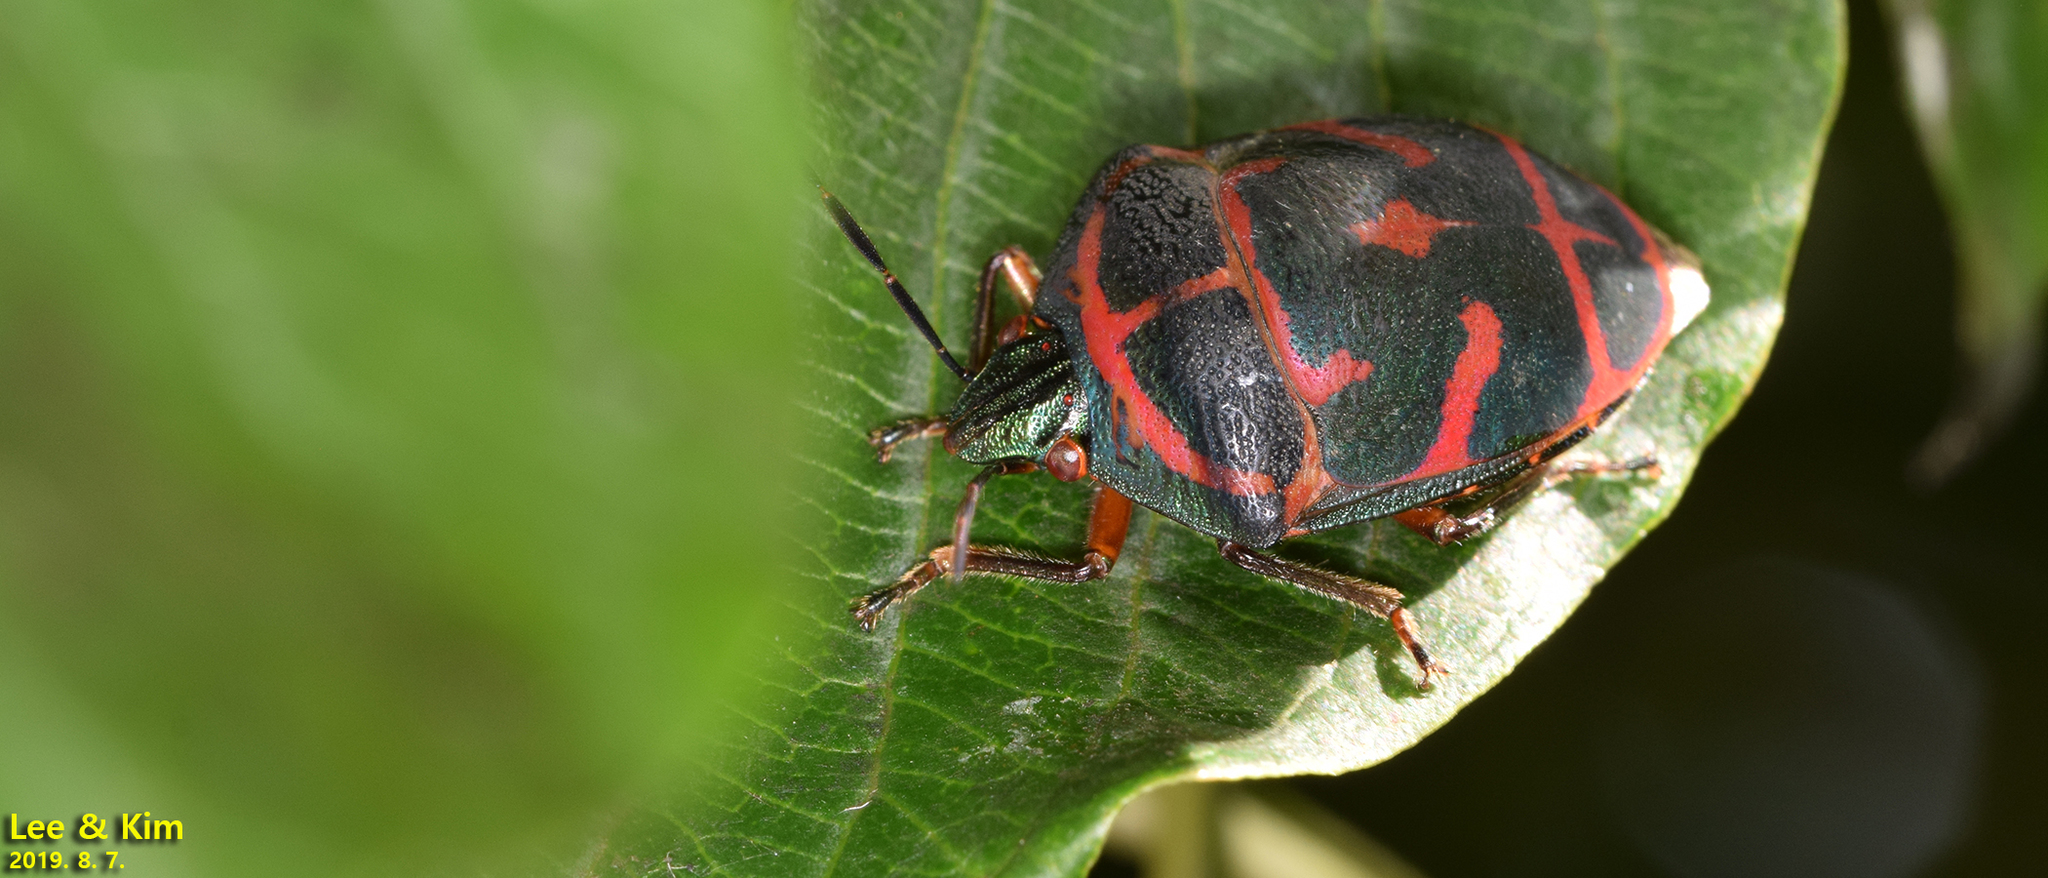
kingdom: Animalia
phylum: Arthropoda
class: Insecta
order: Hemiptera
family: Scutelleridae
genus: Poecilocoris
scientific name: Poecilocoris lewisi
